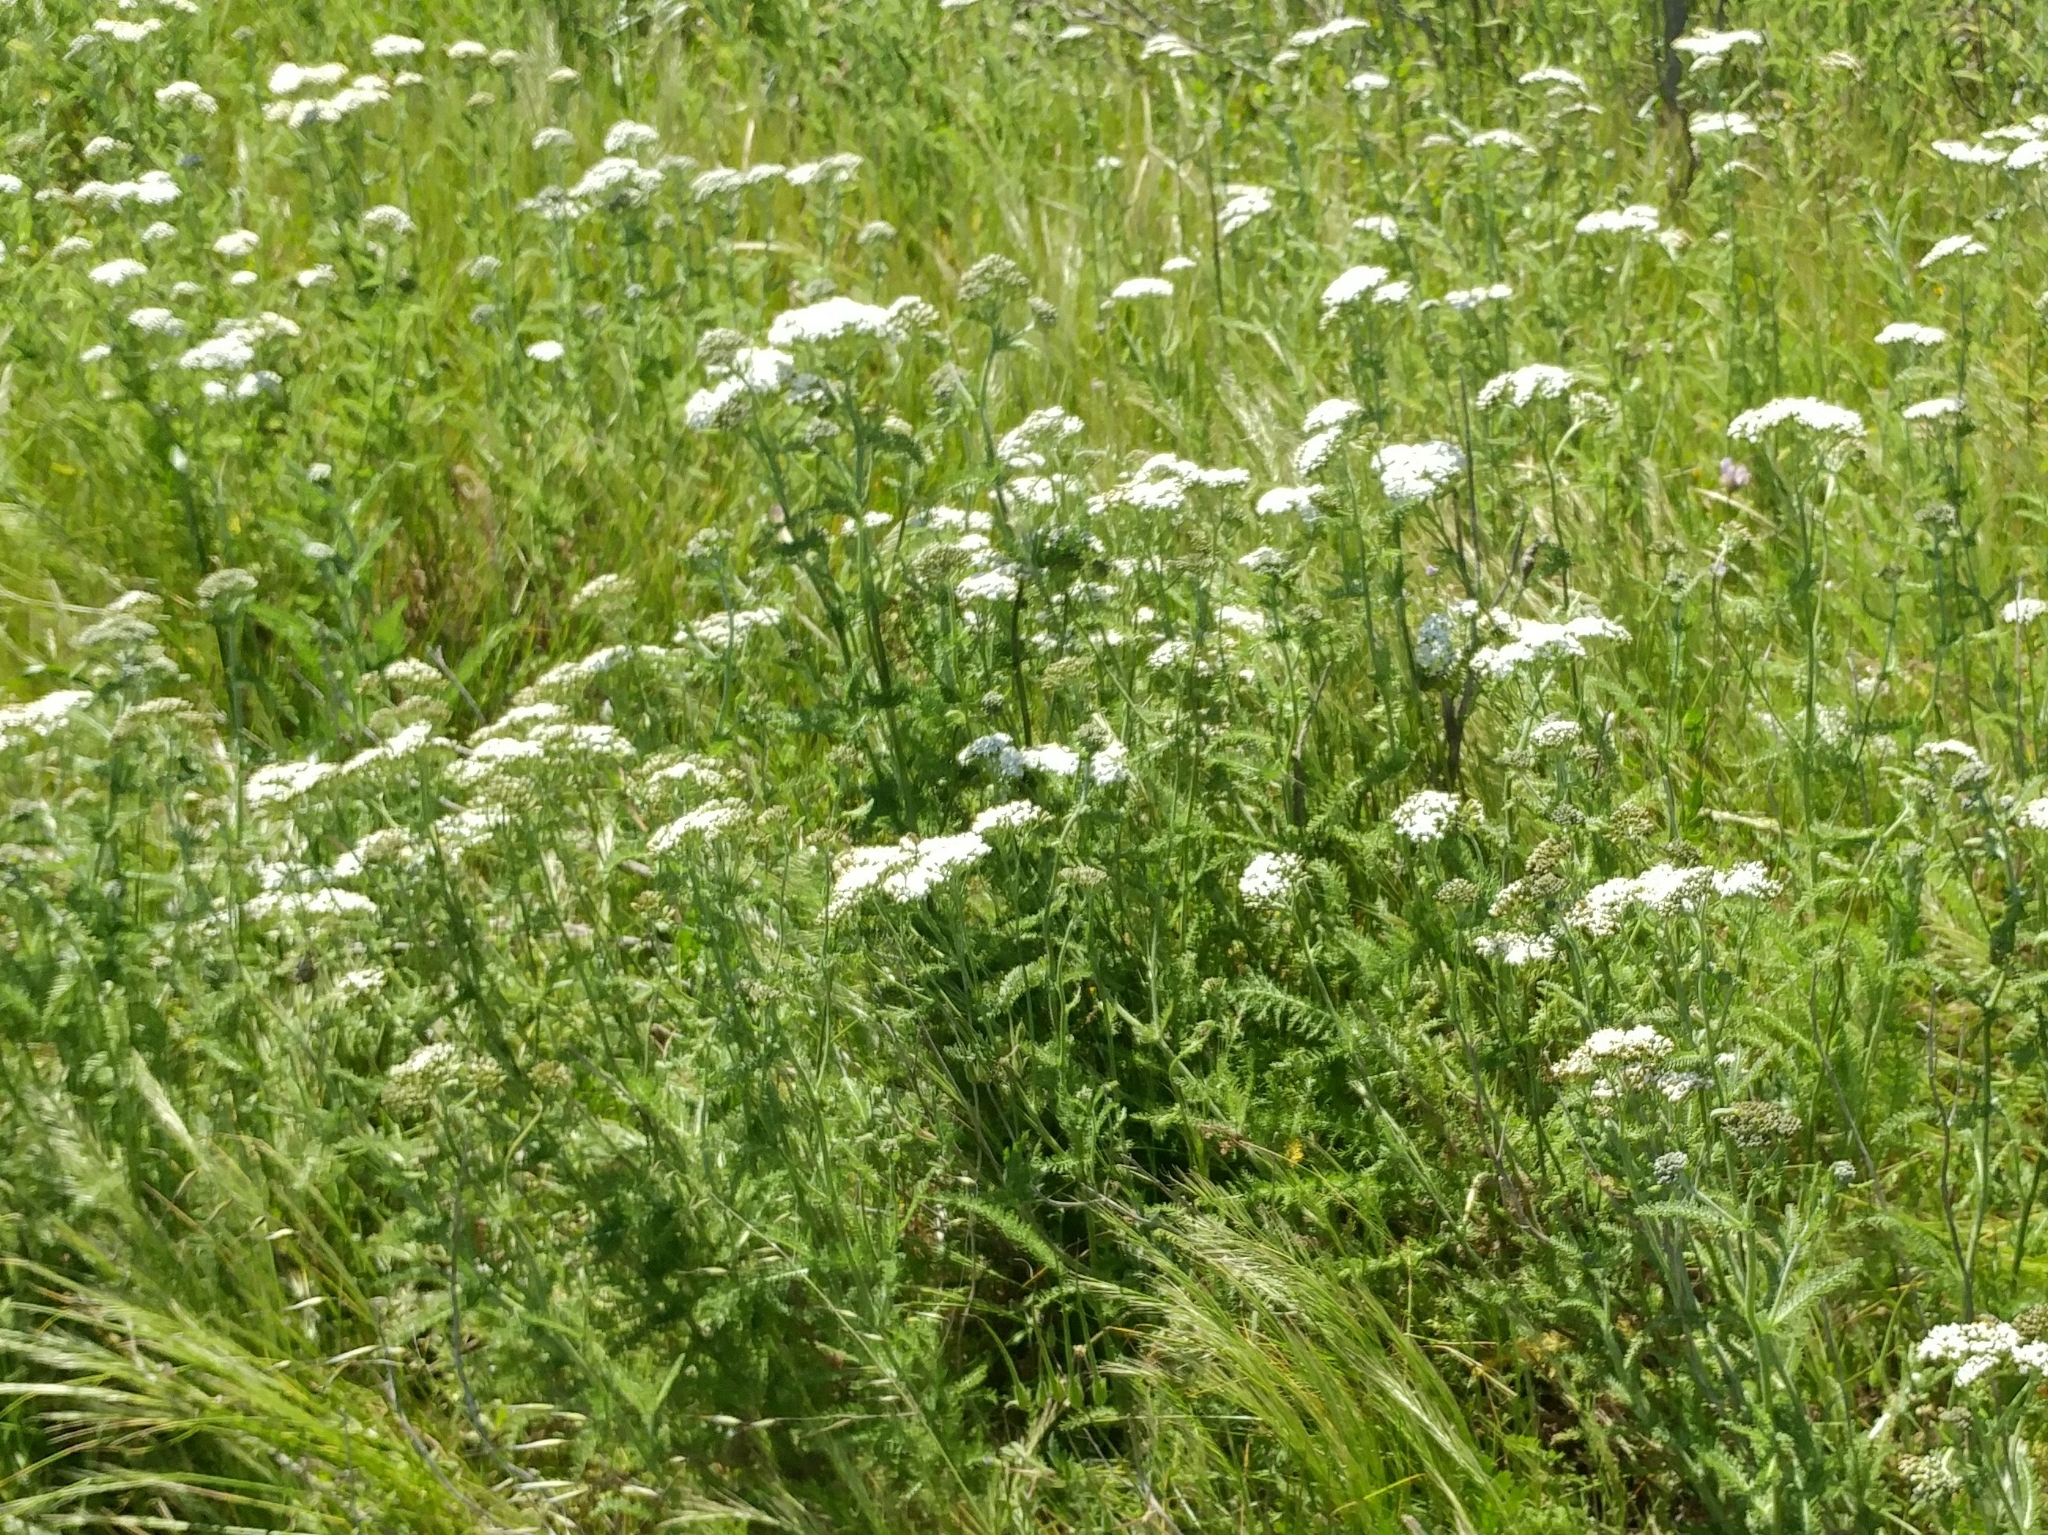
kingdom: Plantae
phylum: Tracheophyta
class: Magnoliopsida
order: Asterales
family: Asteraceae
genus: Achillea
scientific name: Achillea millefolium
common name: Yarrow
